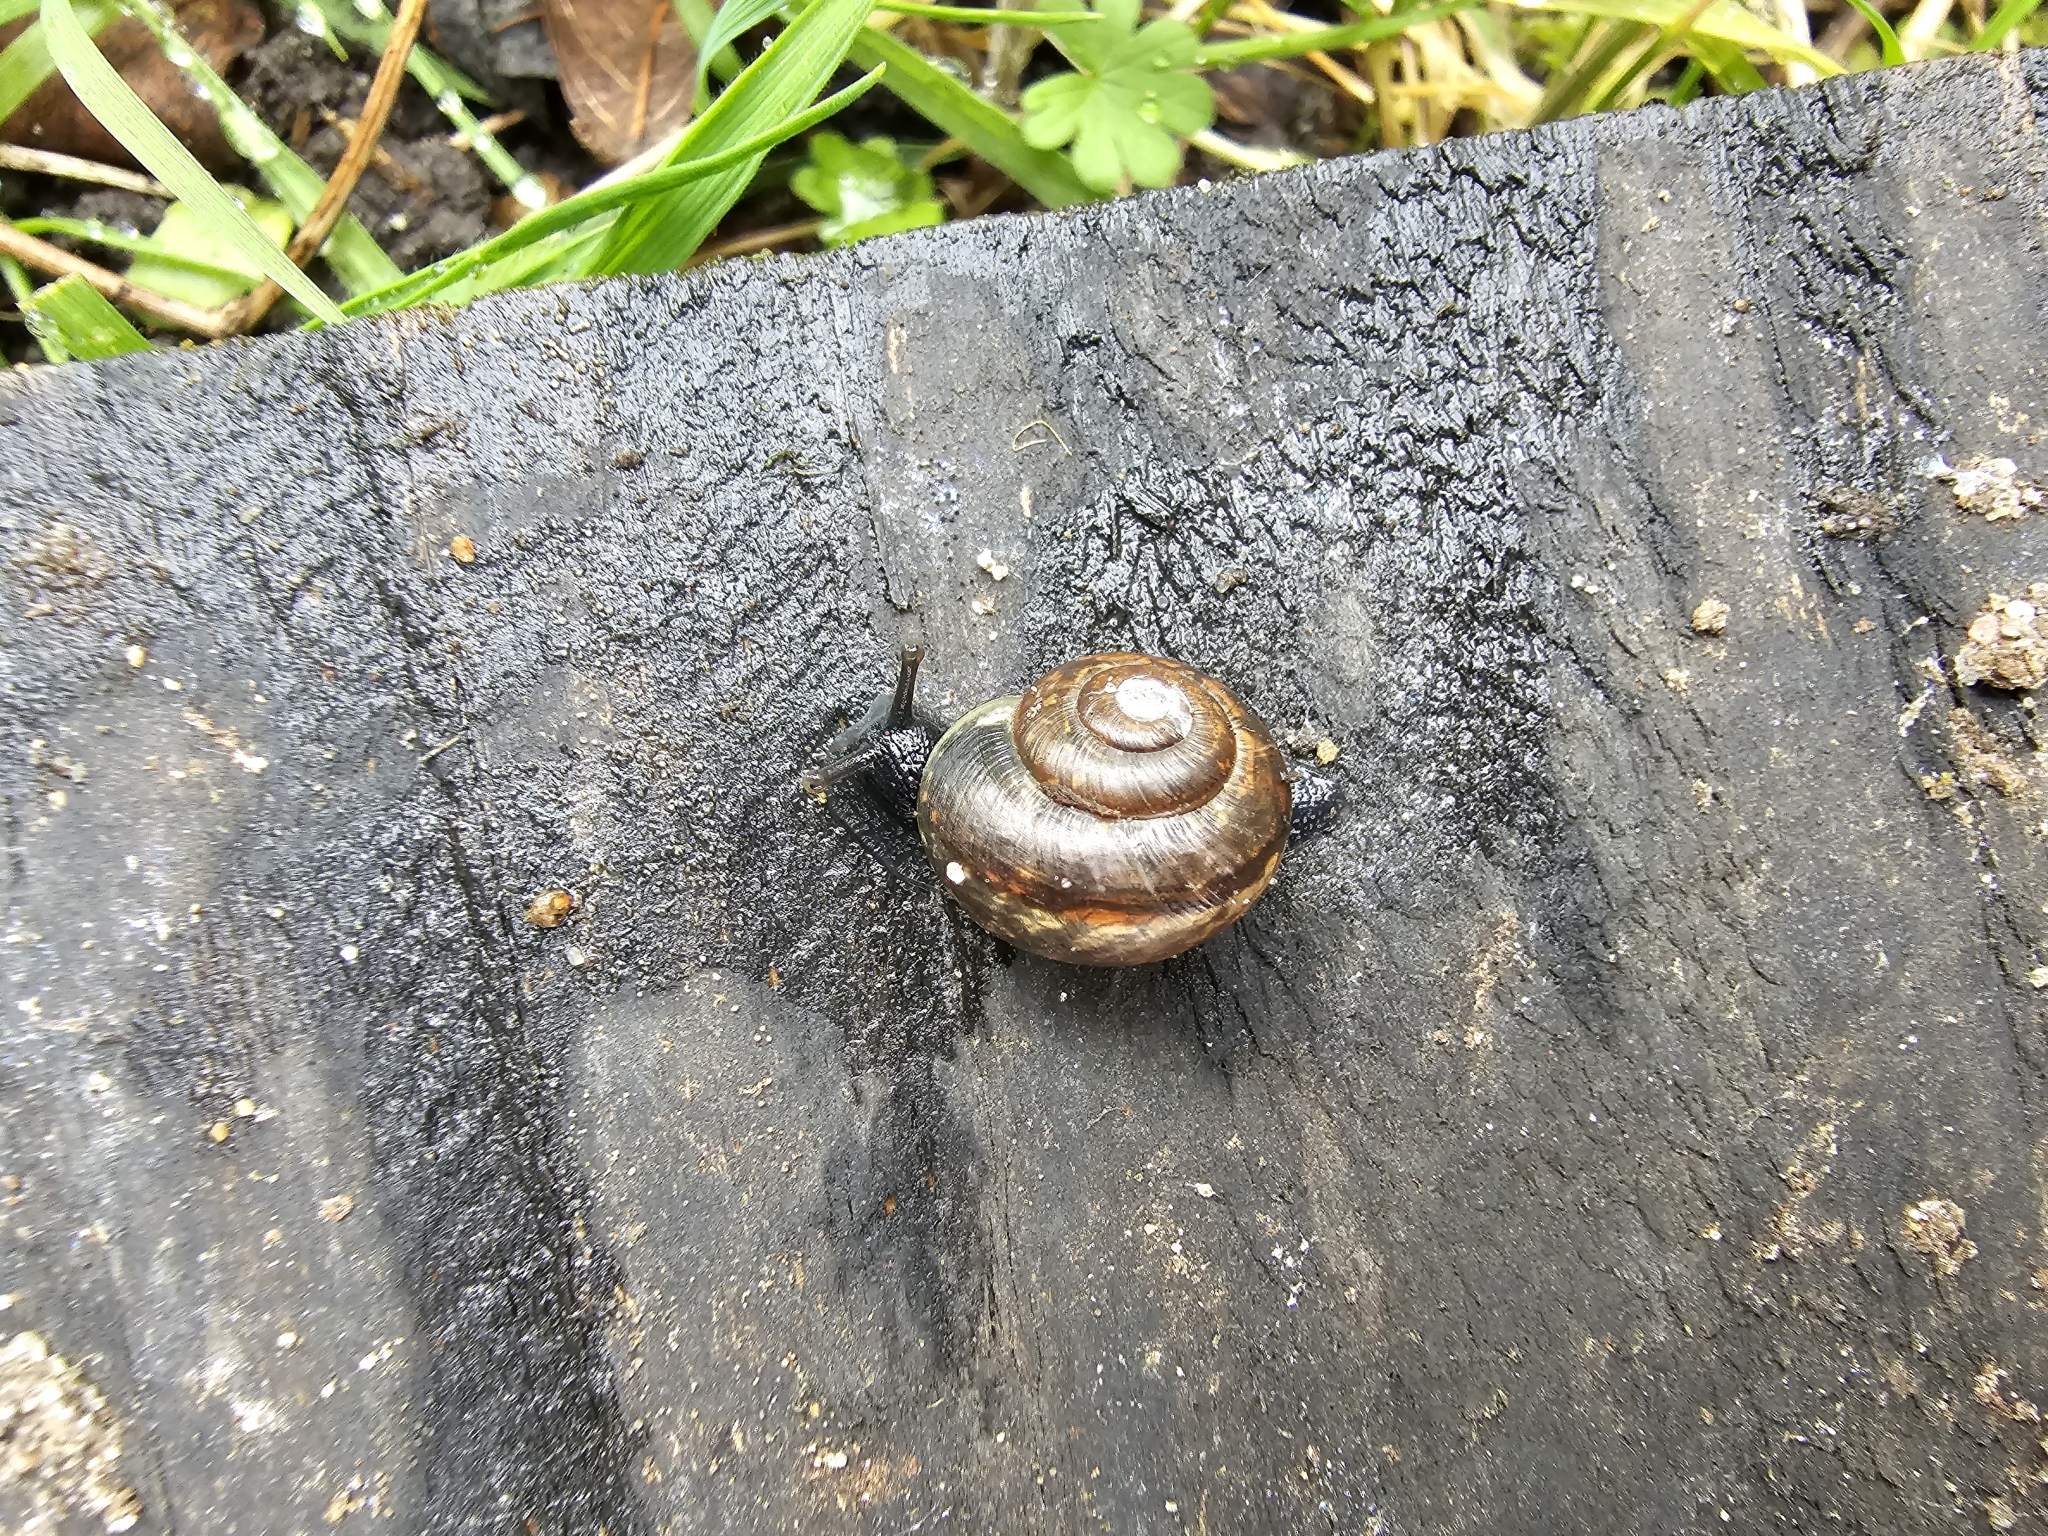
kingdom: Animalia
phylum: Mollusca
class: Gastropoda
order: Stylommatophora
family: Helicidae
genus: Arianta
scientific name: Arianta arbustorum
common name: Copse snail
